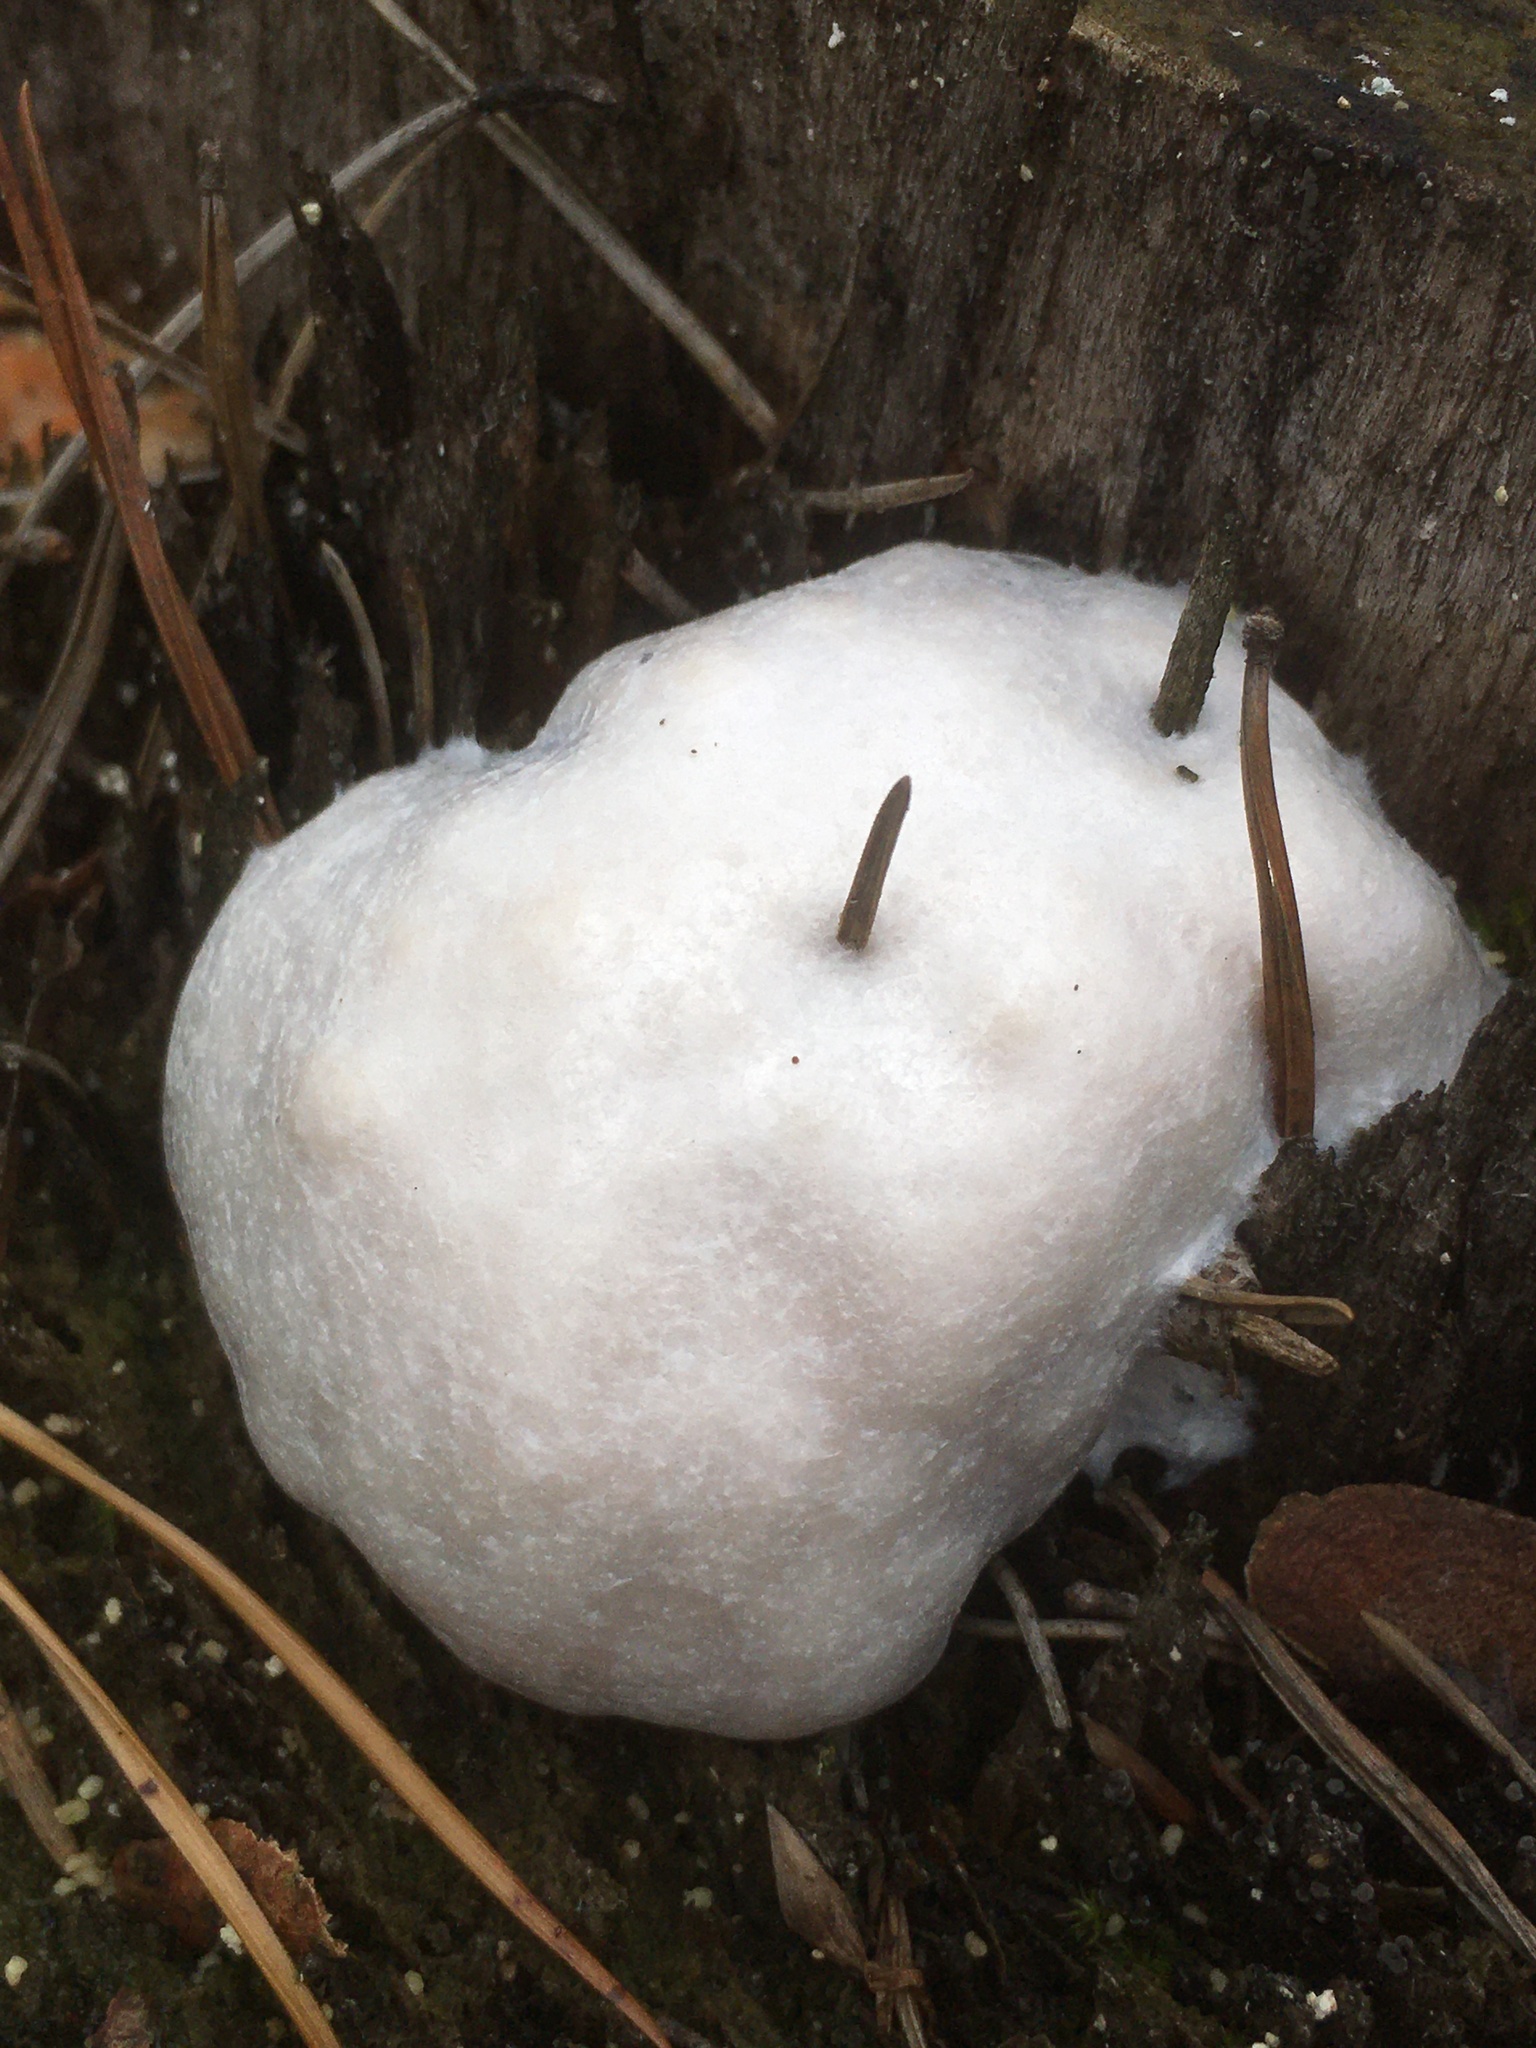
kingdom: Protozoa
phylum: Mycetozoa
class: Myxomycetes
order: Cribrariales
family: Tubiferaceae
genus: Reticularia
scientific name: Reticularia lycoperdon
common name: False puffball
